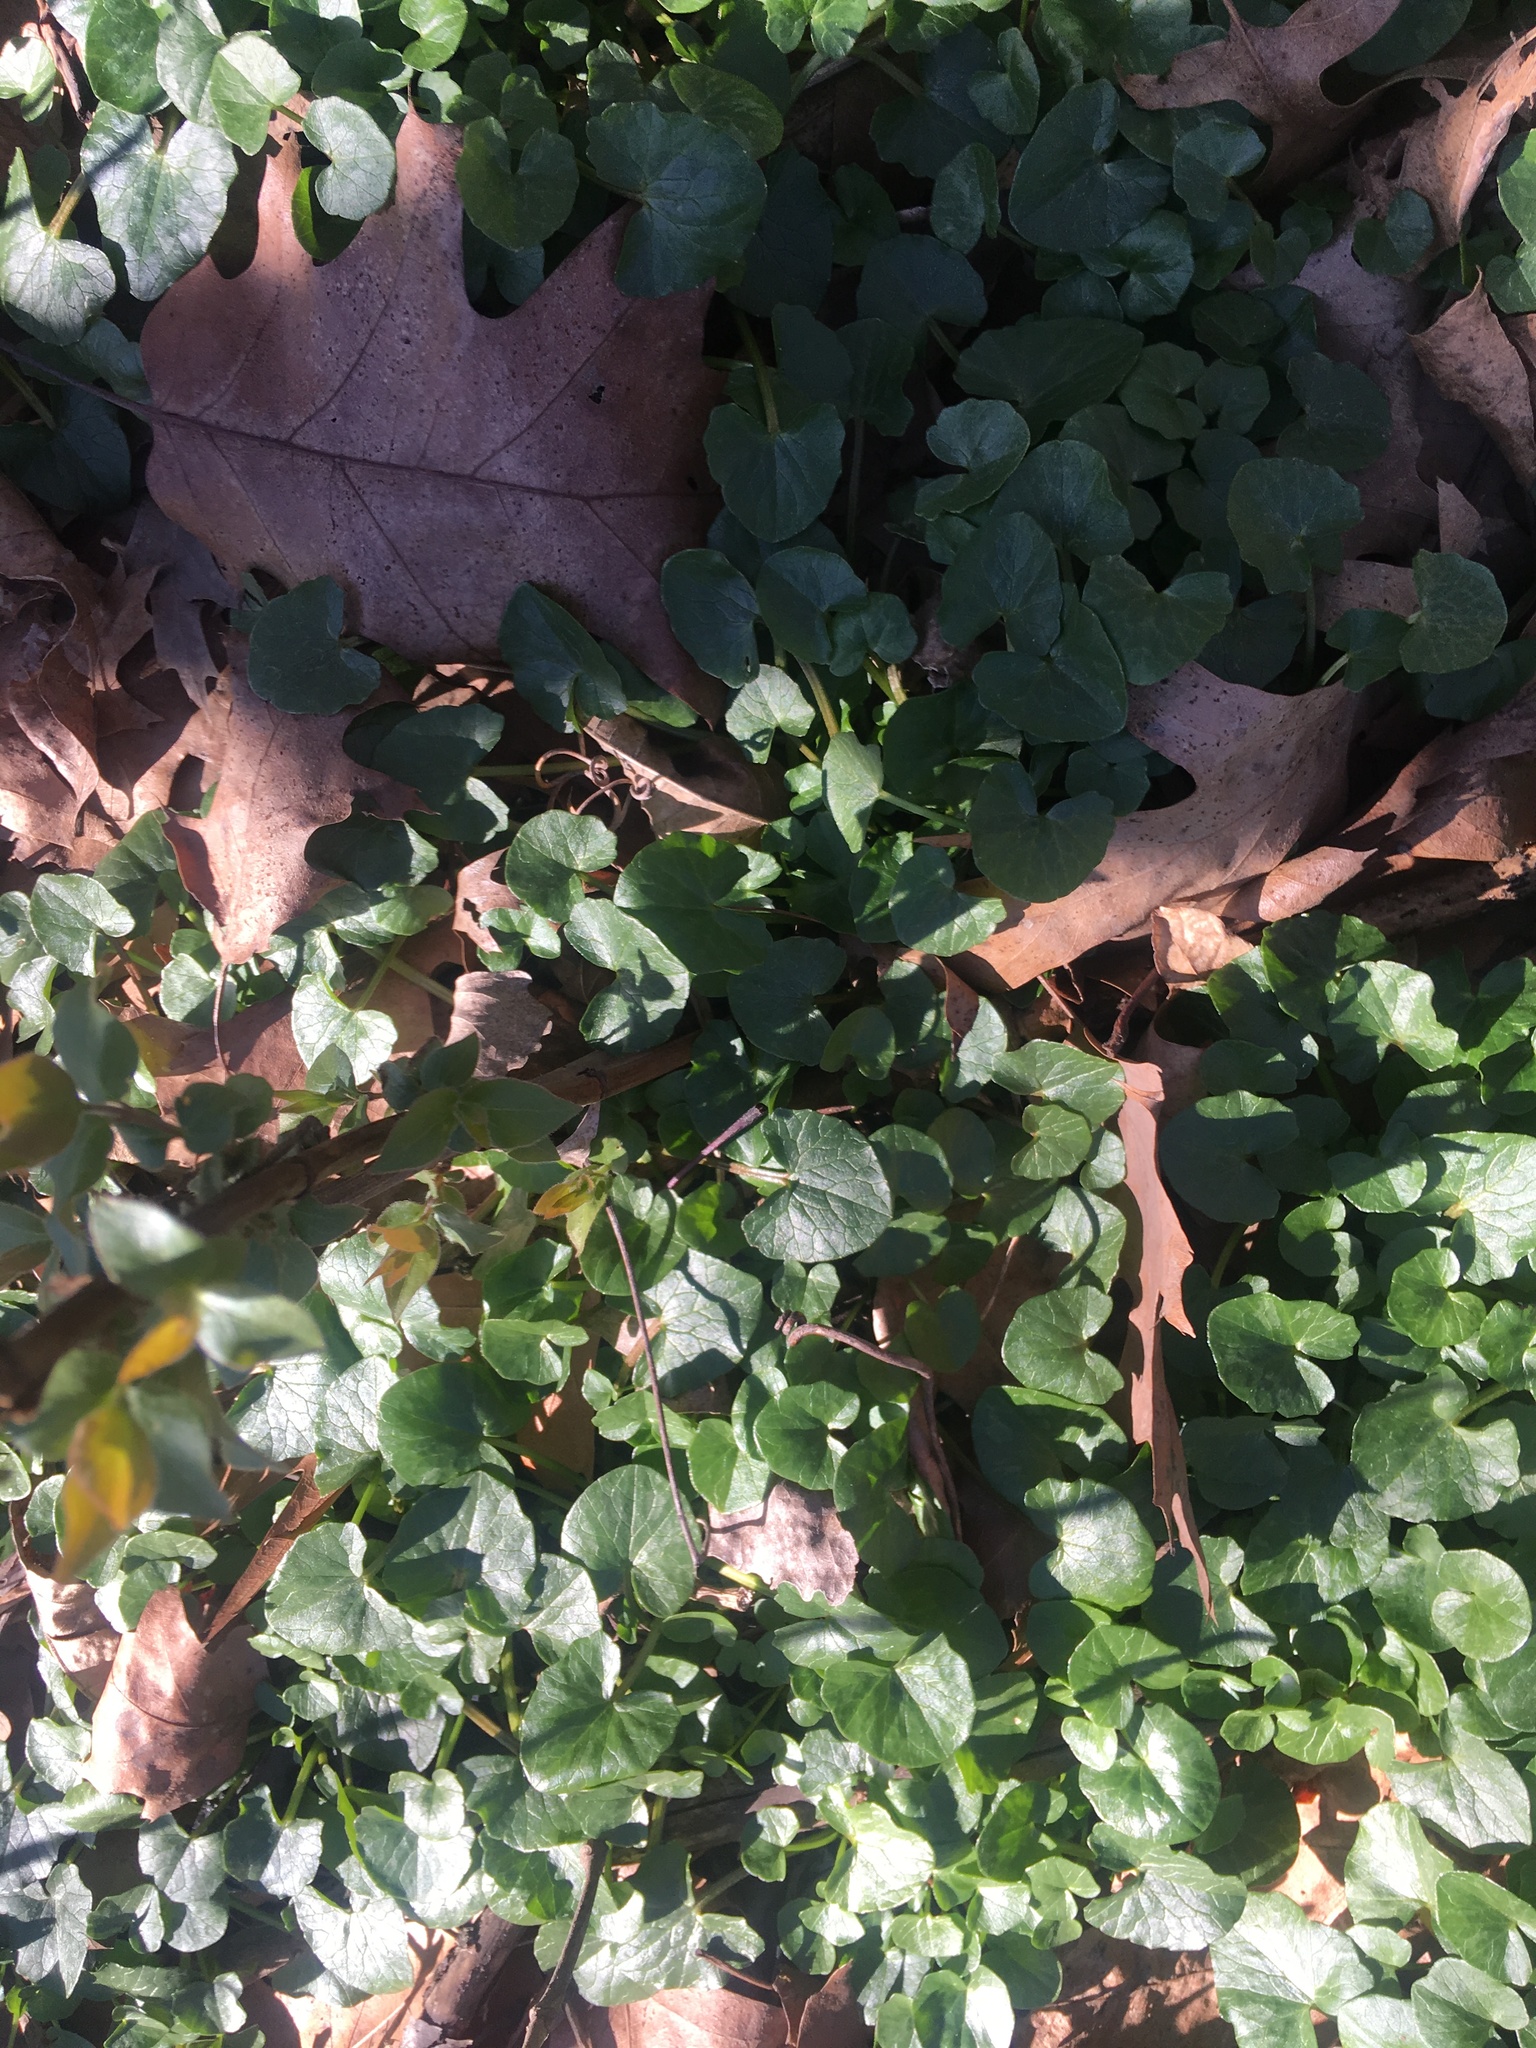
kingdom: Plantae
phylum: Tracheophyta
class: Magnoliopsida
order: Ranunculales
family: Ranunculaceae
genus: Ficaria
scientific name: Ficaria verna
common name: Lesser celandine
